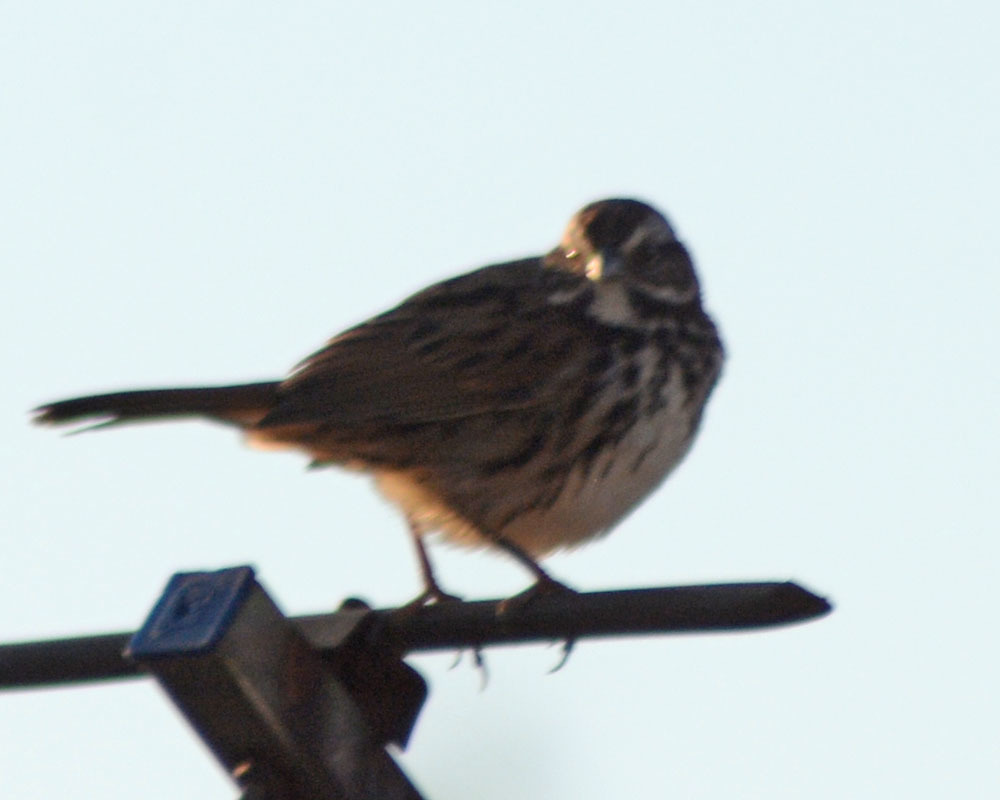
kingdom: Animalia
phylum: Chordata
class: Aves
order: Passeriformes
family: Passerellidae
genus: Melospiza
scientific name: Melospiza melodia
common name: Song sparrow
